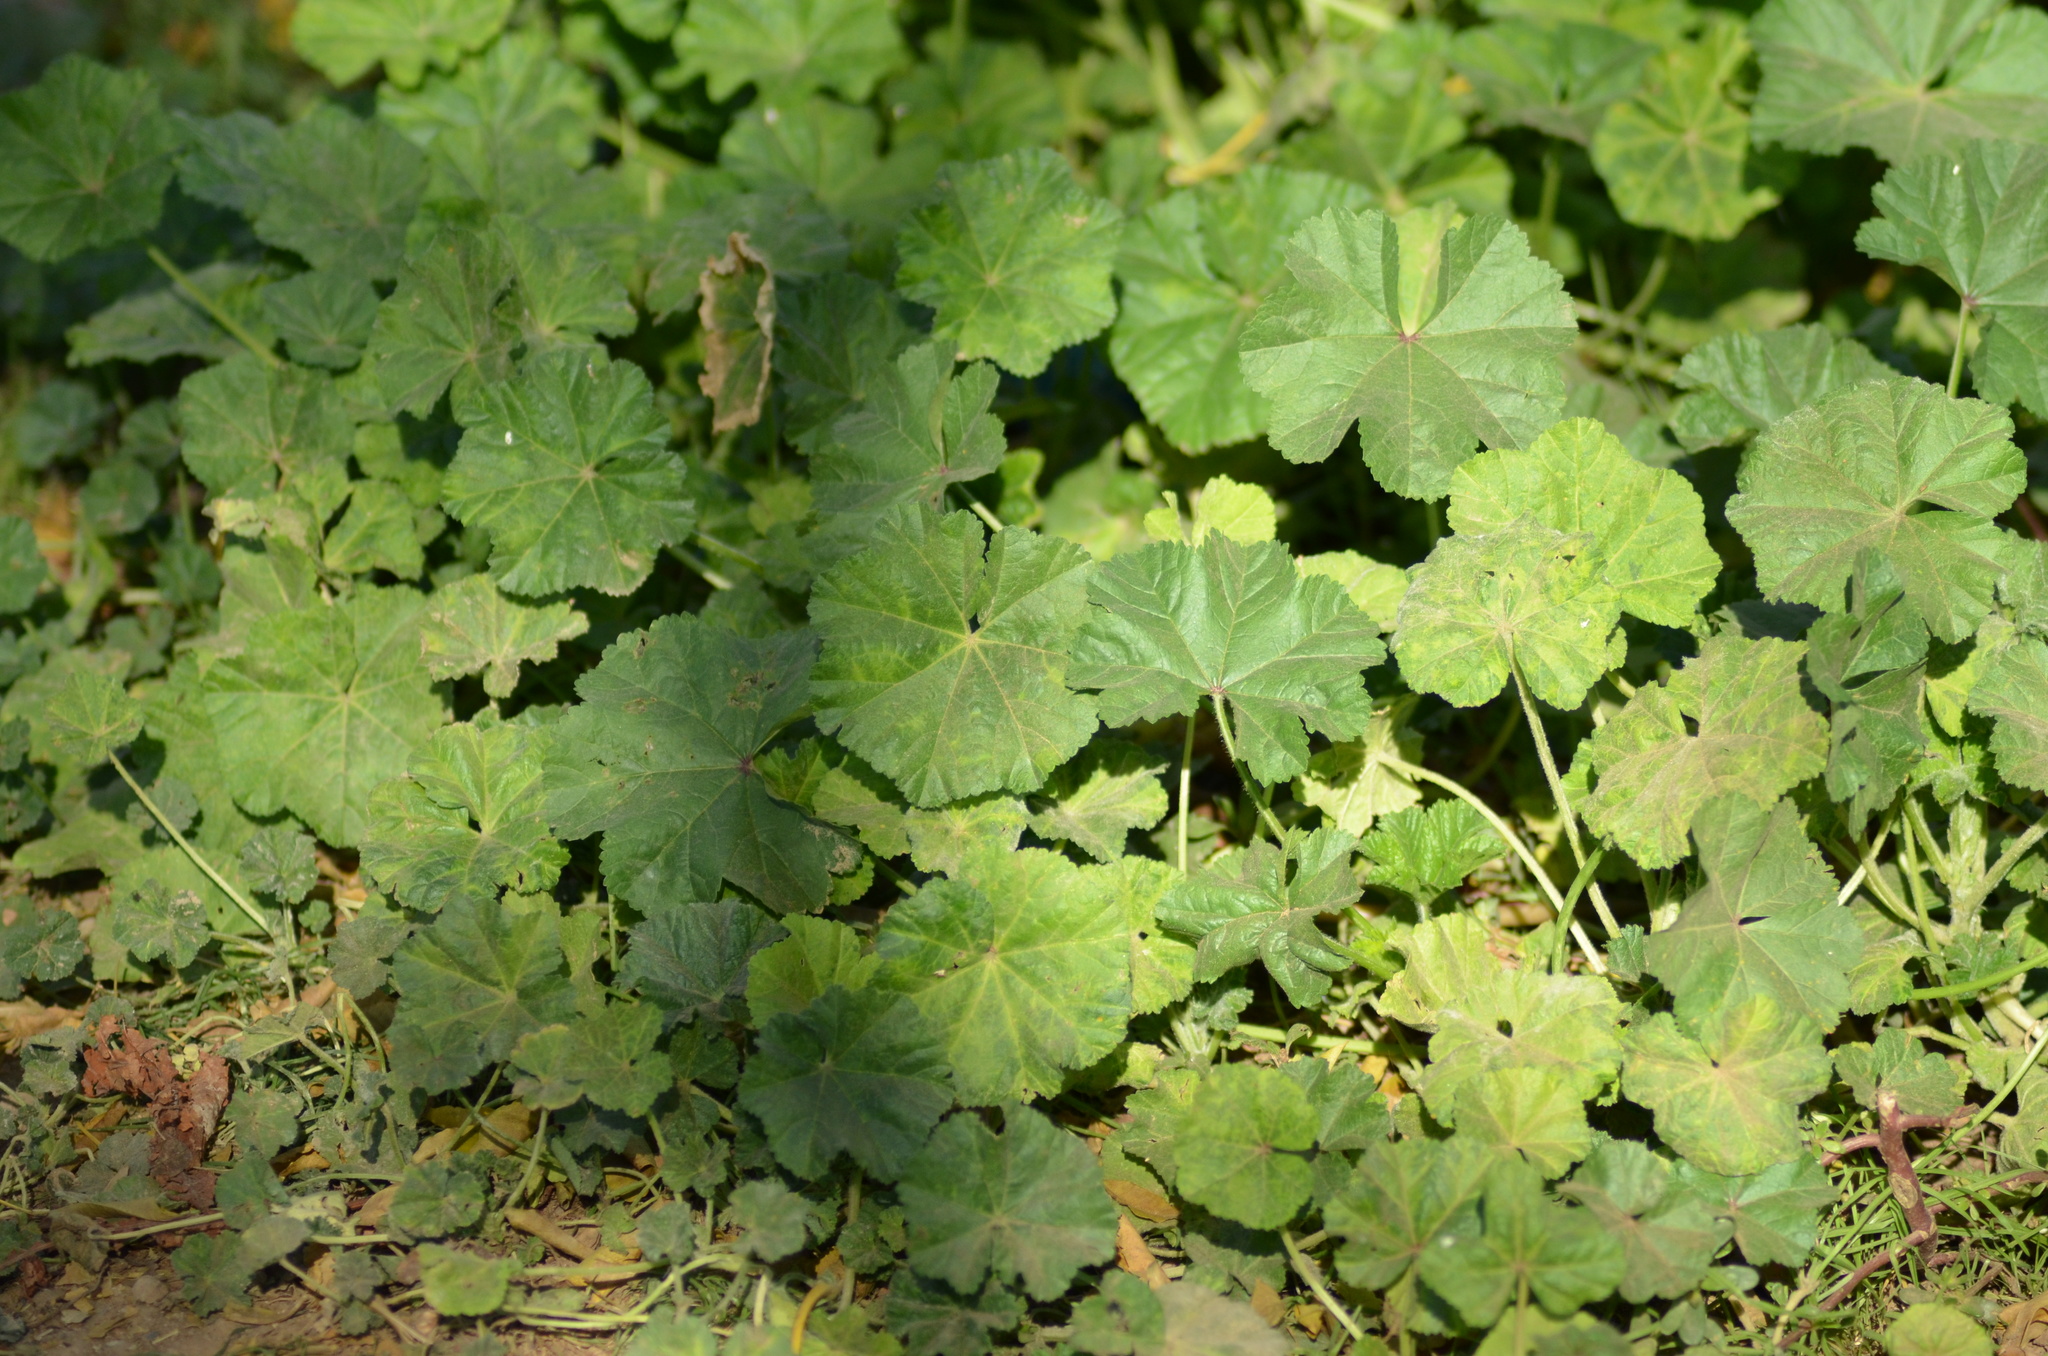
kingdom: Plantae
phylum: Tracheophyta
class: Magnoliopsida
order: Malvales
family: Malvaceae
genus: Malva
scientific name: Malva sylvestris
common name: Common mallow
